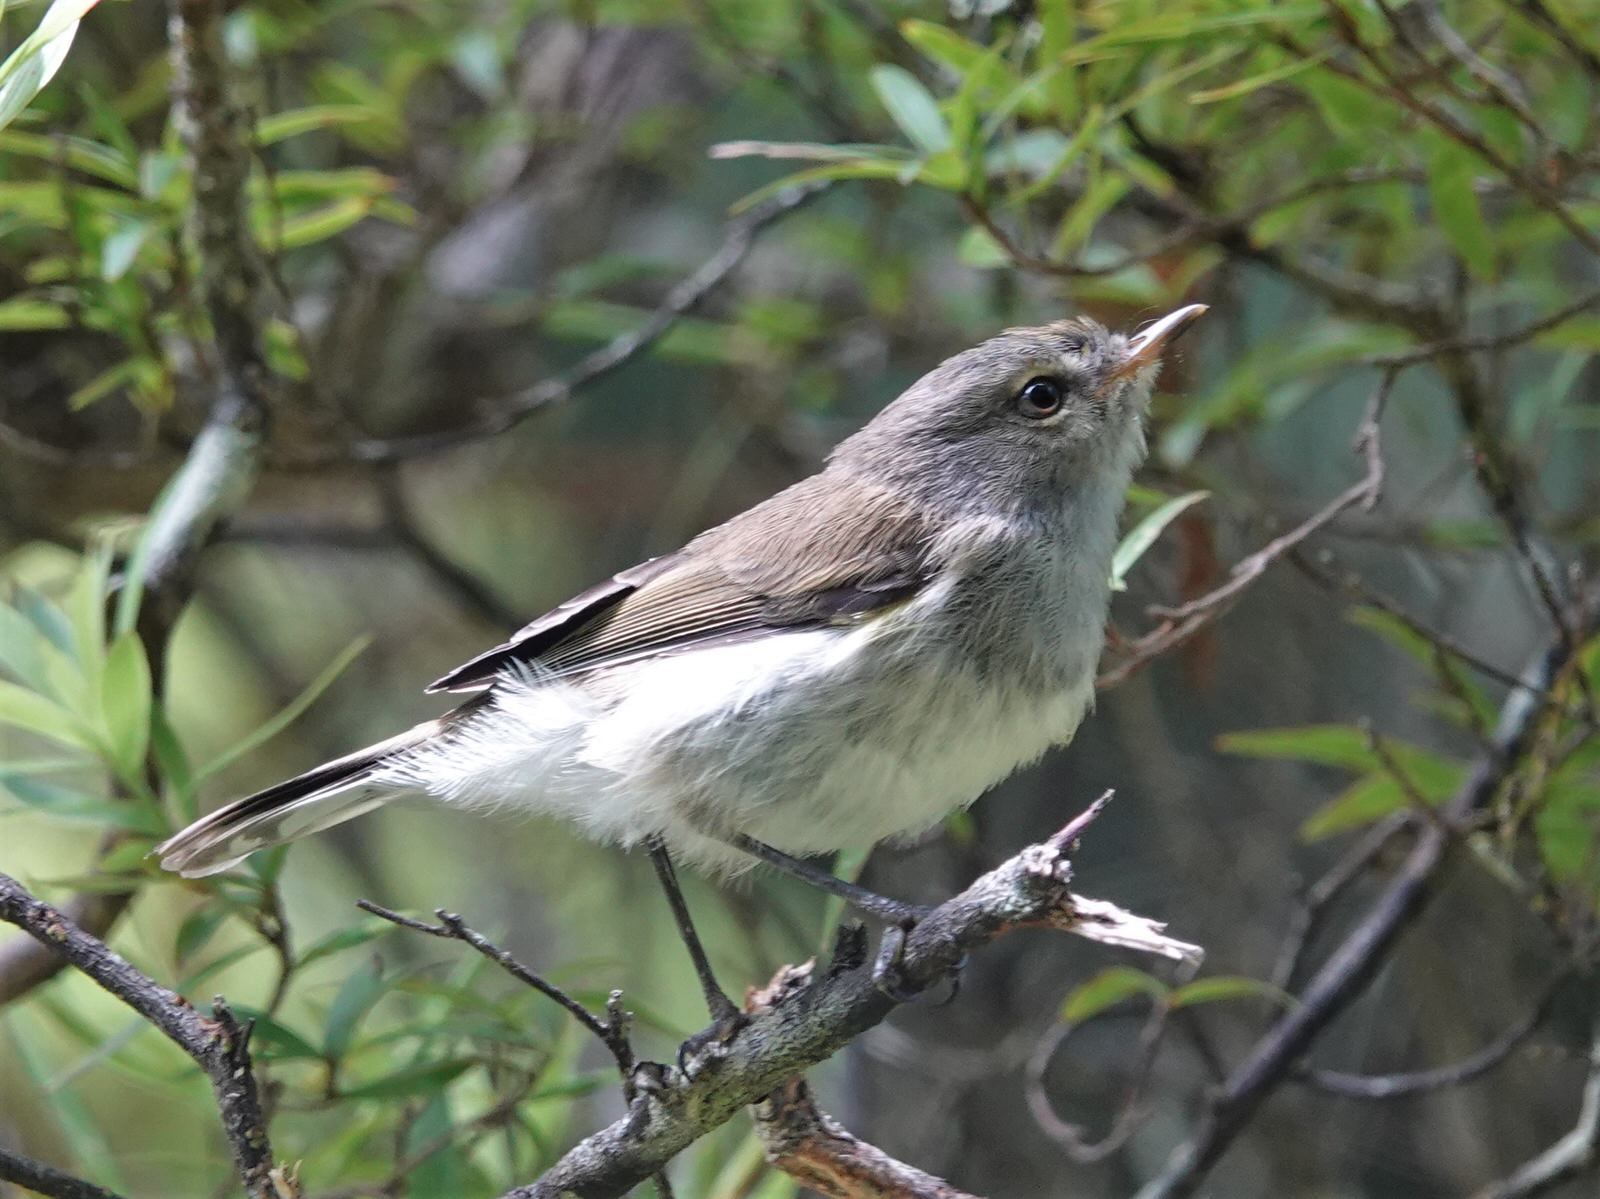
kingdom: Animalia
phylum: Chordata
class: Aves
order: Passeriformes
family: Acanthizidae
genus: Gerygone
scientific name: Gerygone igata
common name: Grey gerygone
